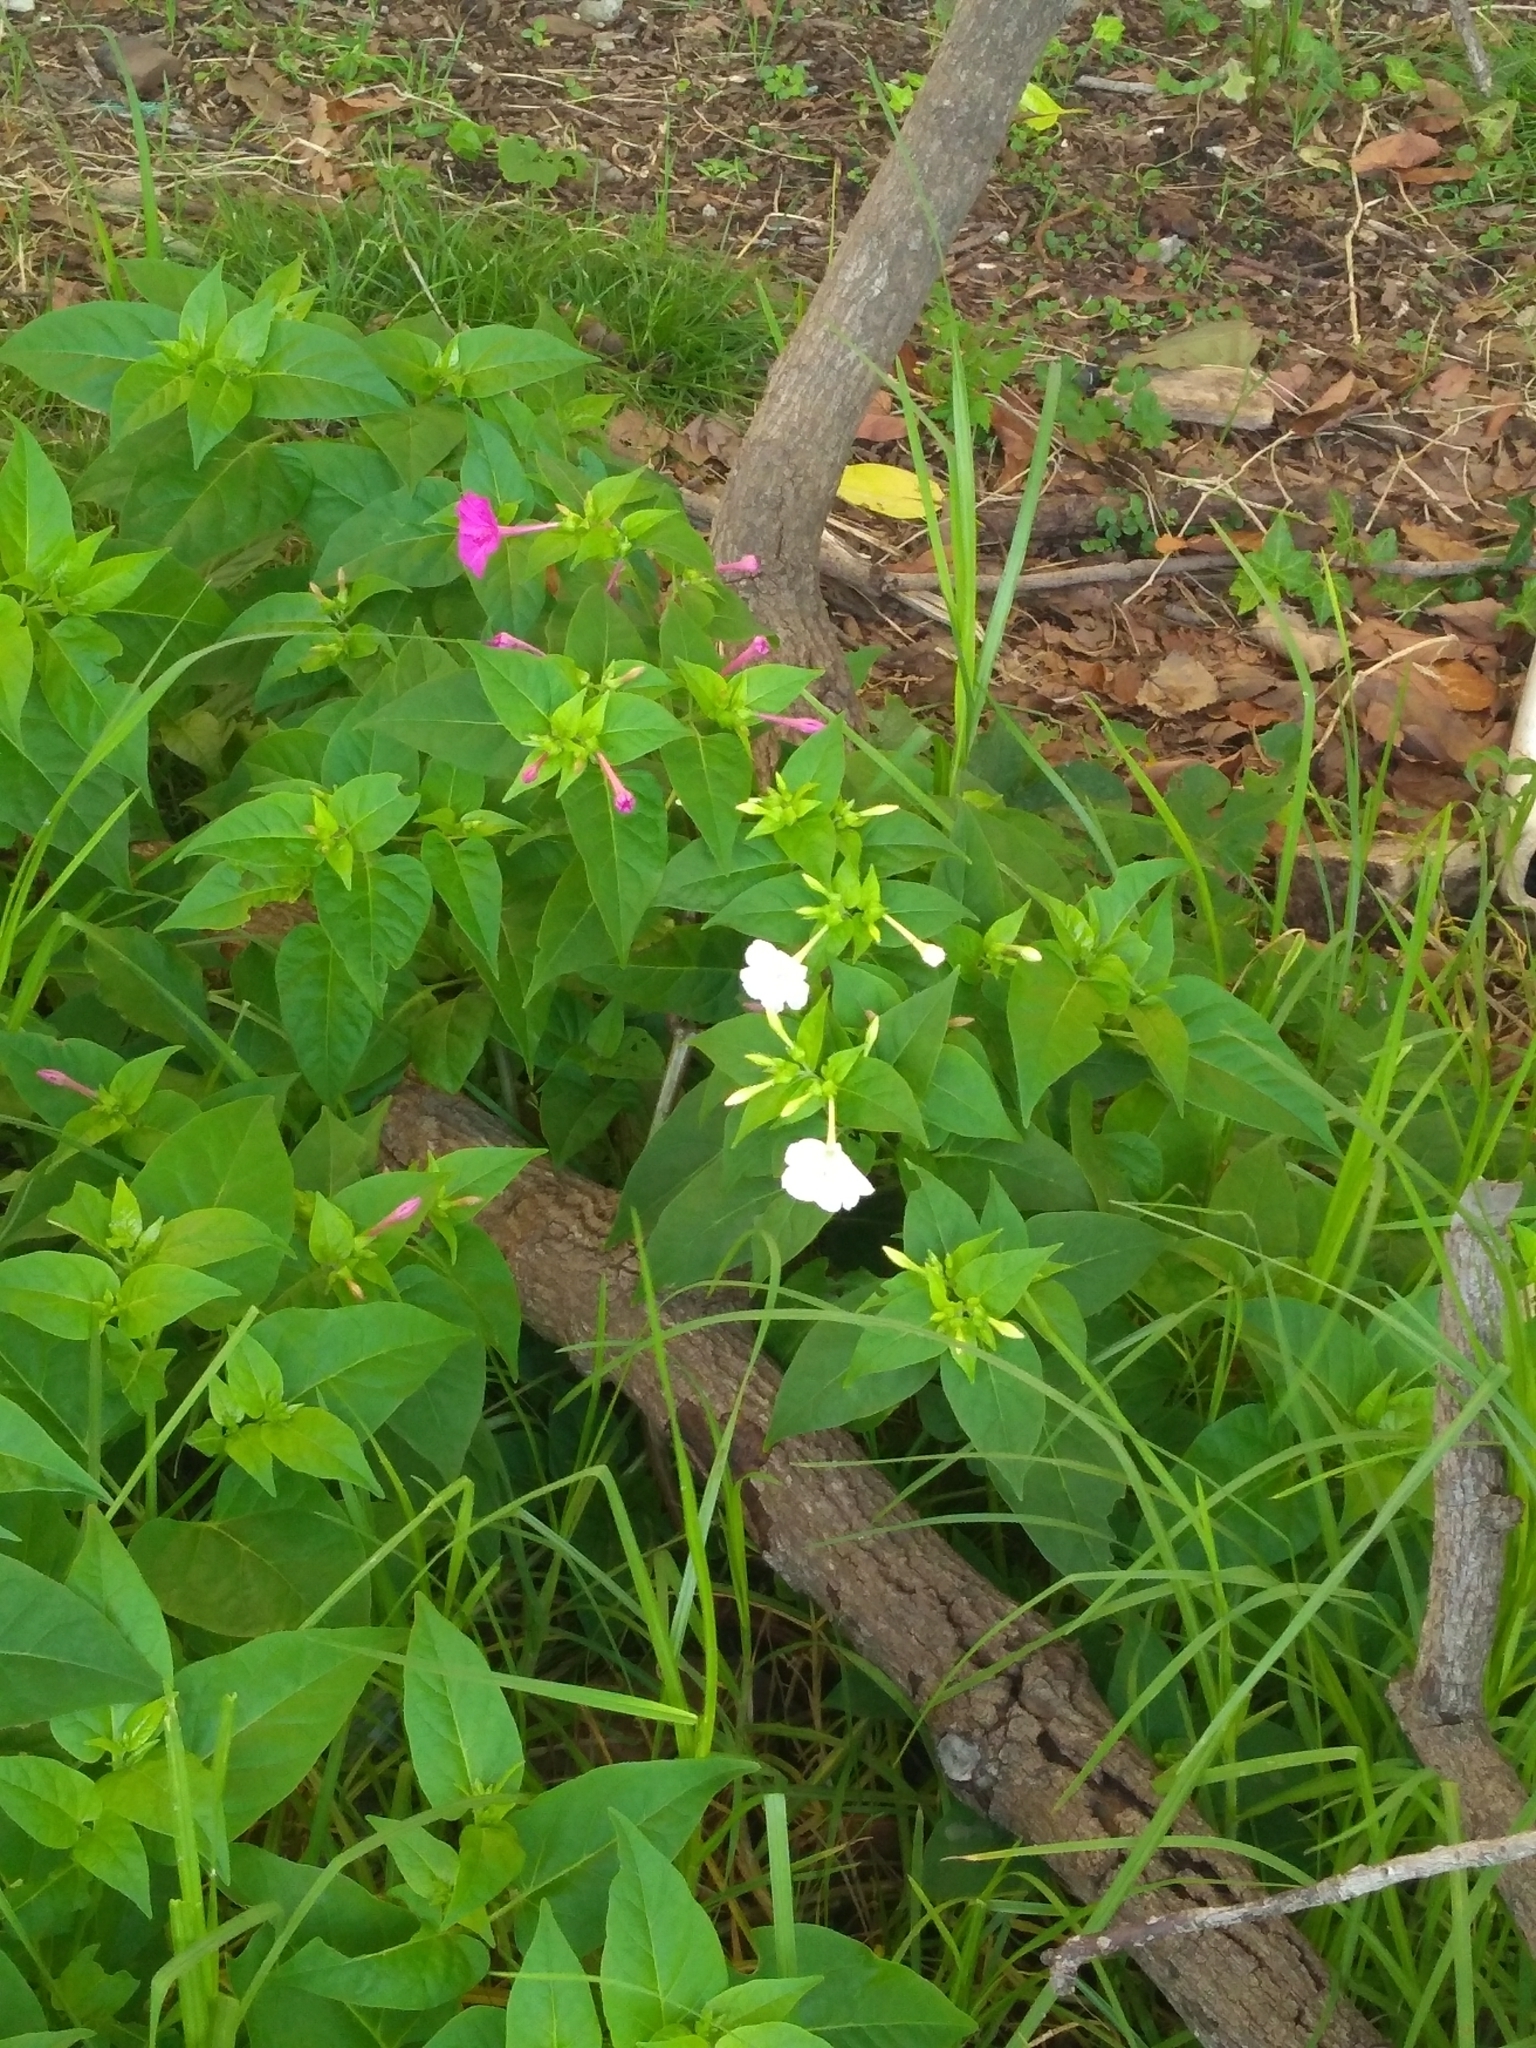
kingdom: Plantae
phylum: Tracheophyta
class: Magnoliopsida
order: Caryophyllales
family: Nyctaginaceae
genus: Mirabilis
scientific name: Mirabilis jalapa
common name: Marvel-of-peru
